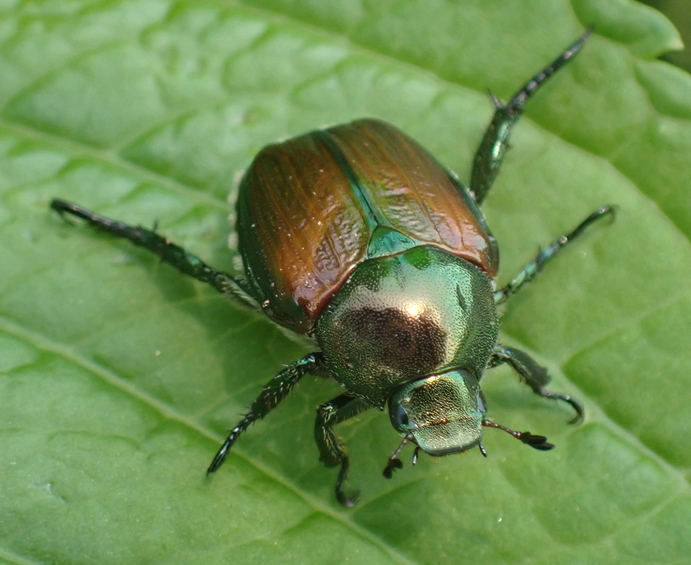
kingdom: Animalia
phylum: Arthropoda
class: Insecta
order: Coleoptera
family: Scarabaeidae
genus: Popillia
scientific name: Popillia japonica
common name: Japanese beetle
